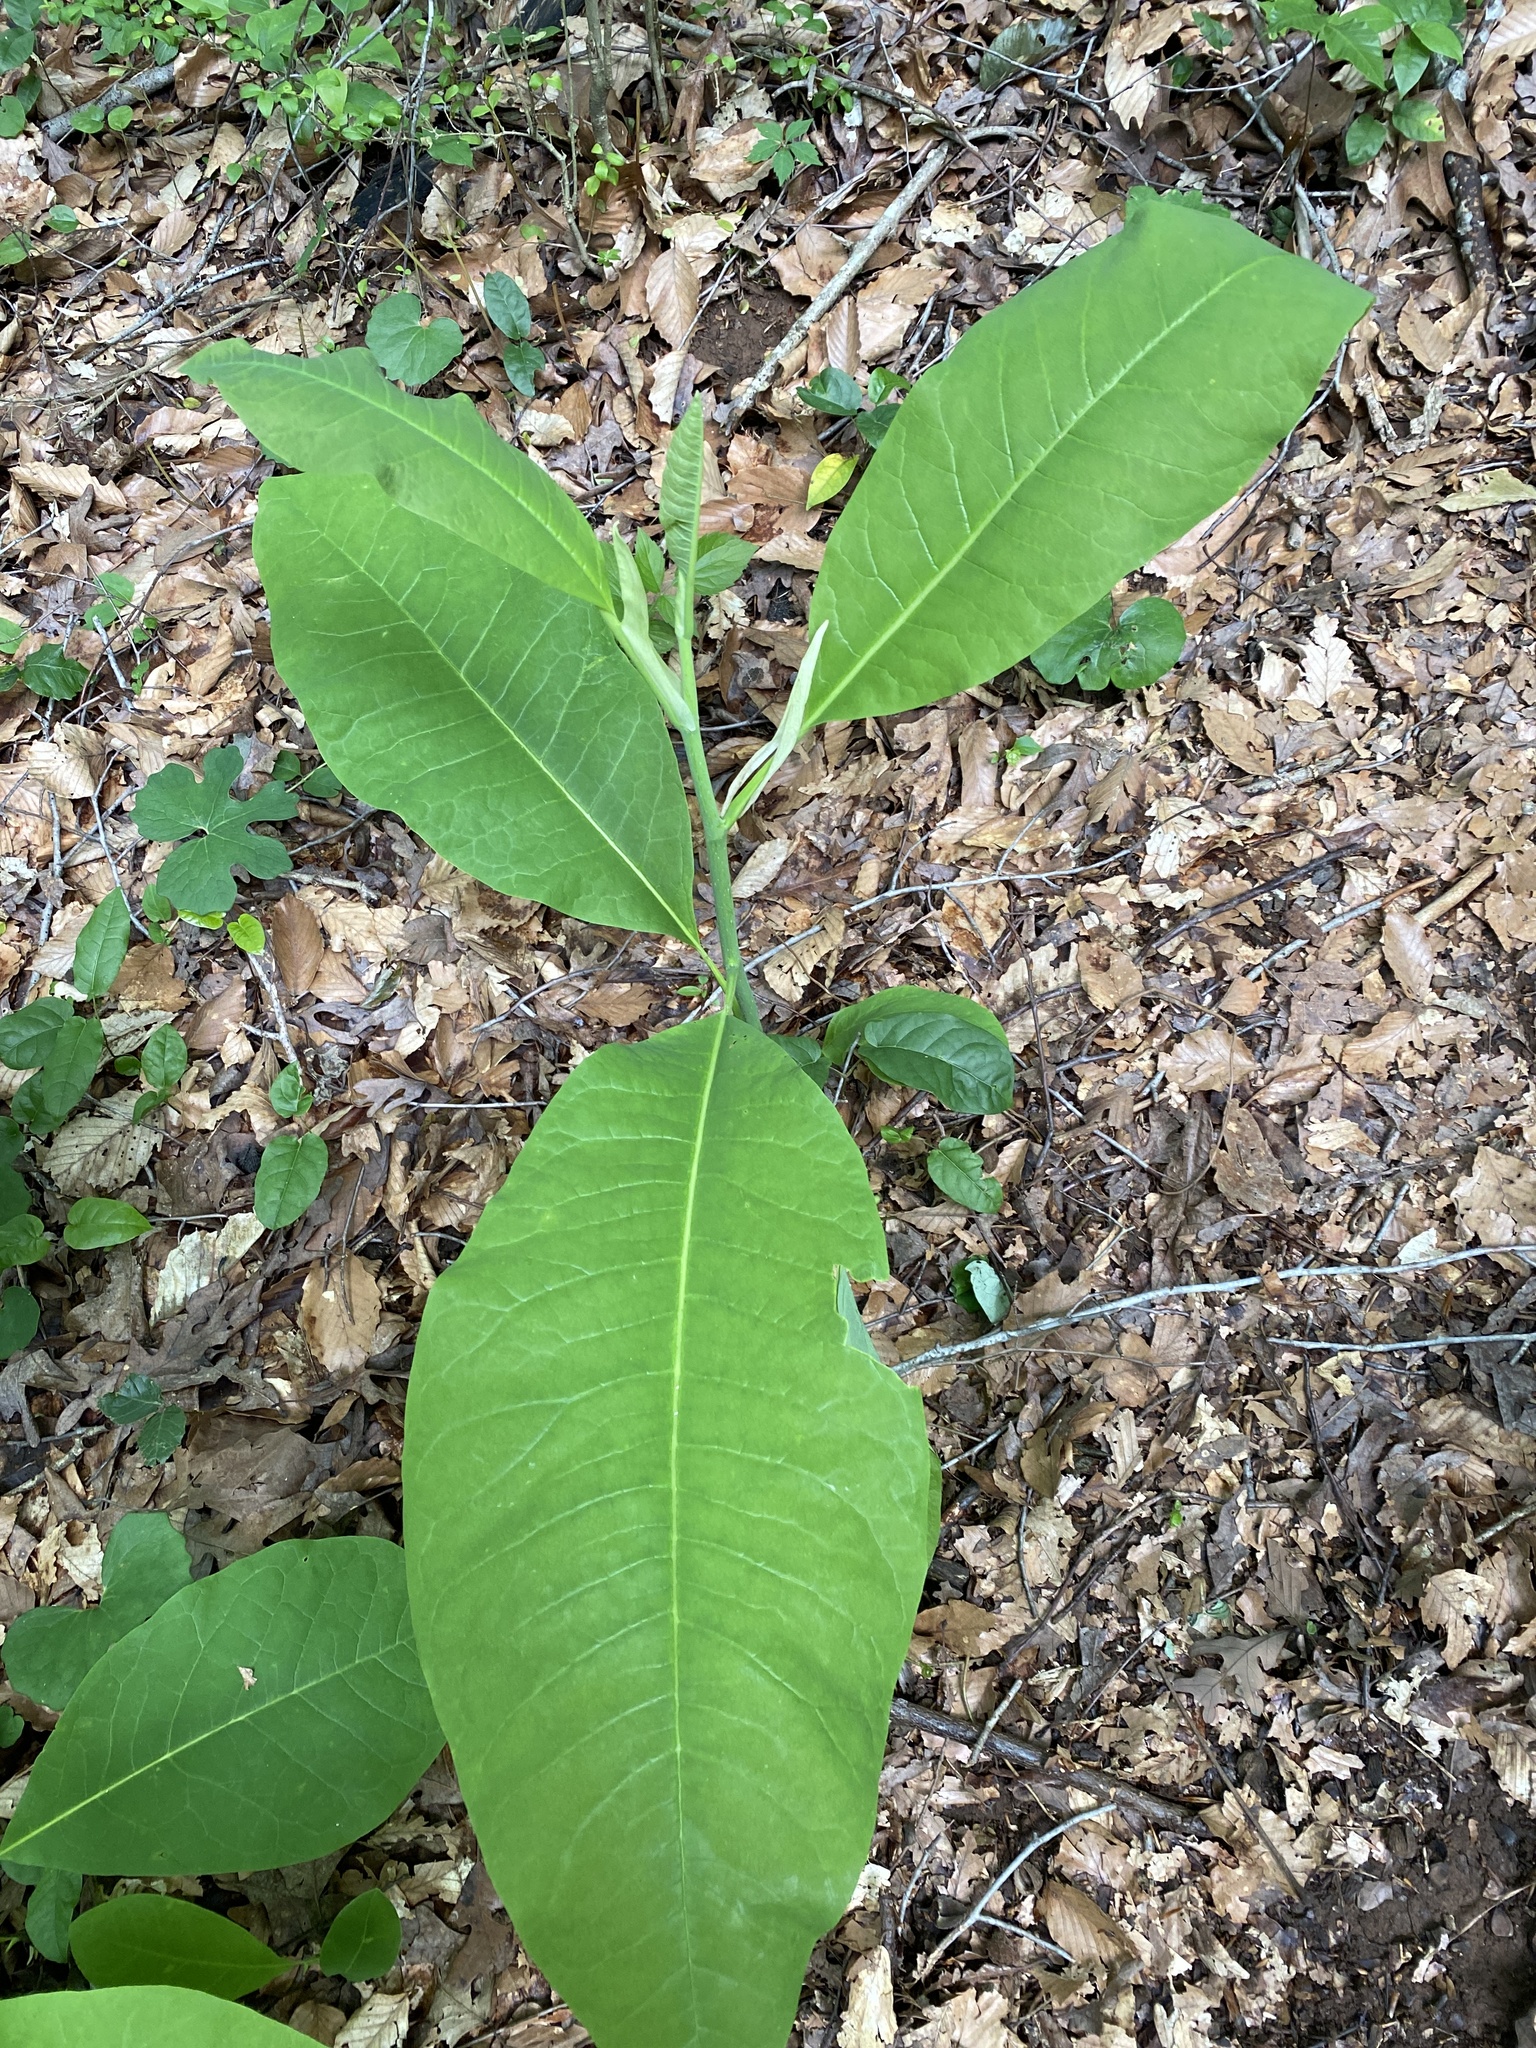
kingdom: Plantae
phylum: Tracheophyta
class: Magnoliopsida
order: Magnoliales
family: Magnoliaceae
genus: Magnolia
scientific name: Magnolia tripetala
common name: Umbrella magnolia
